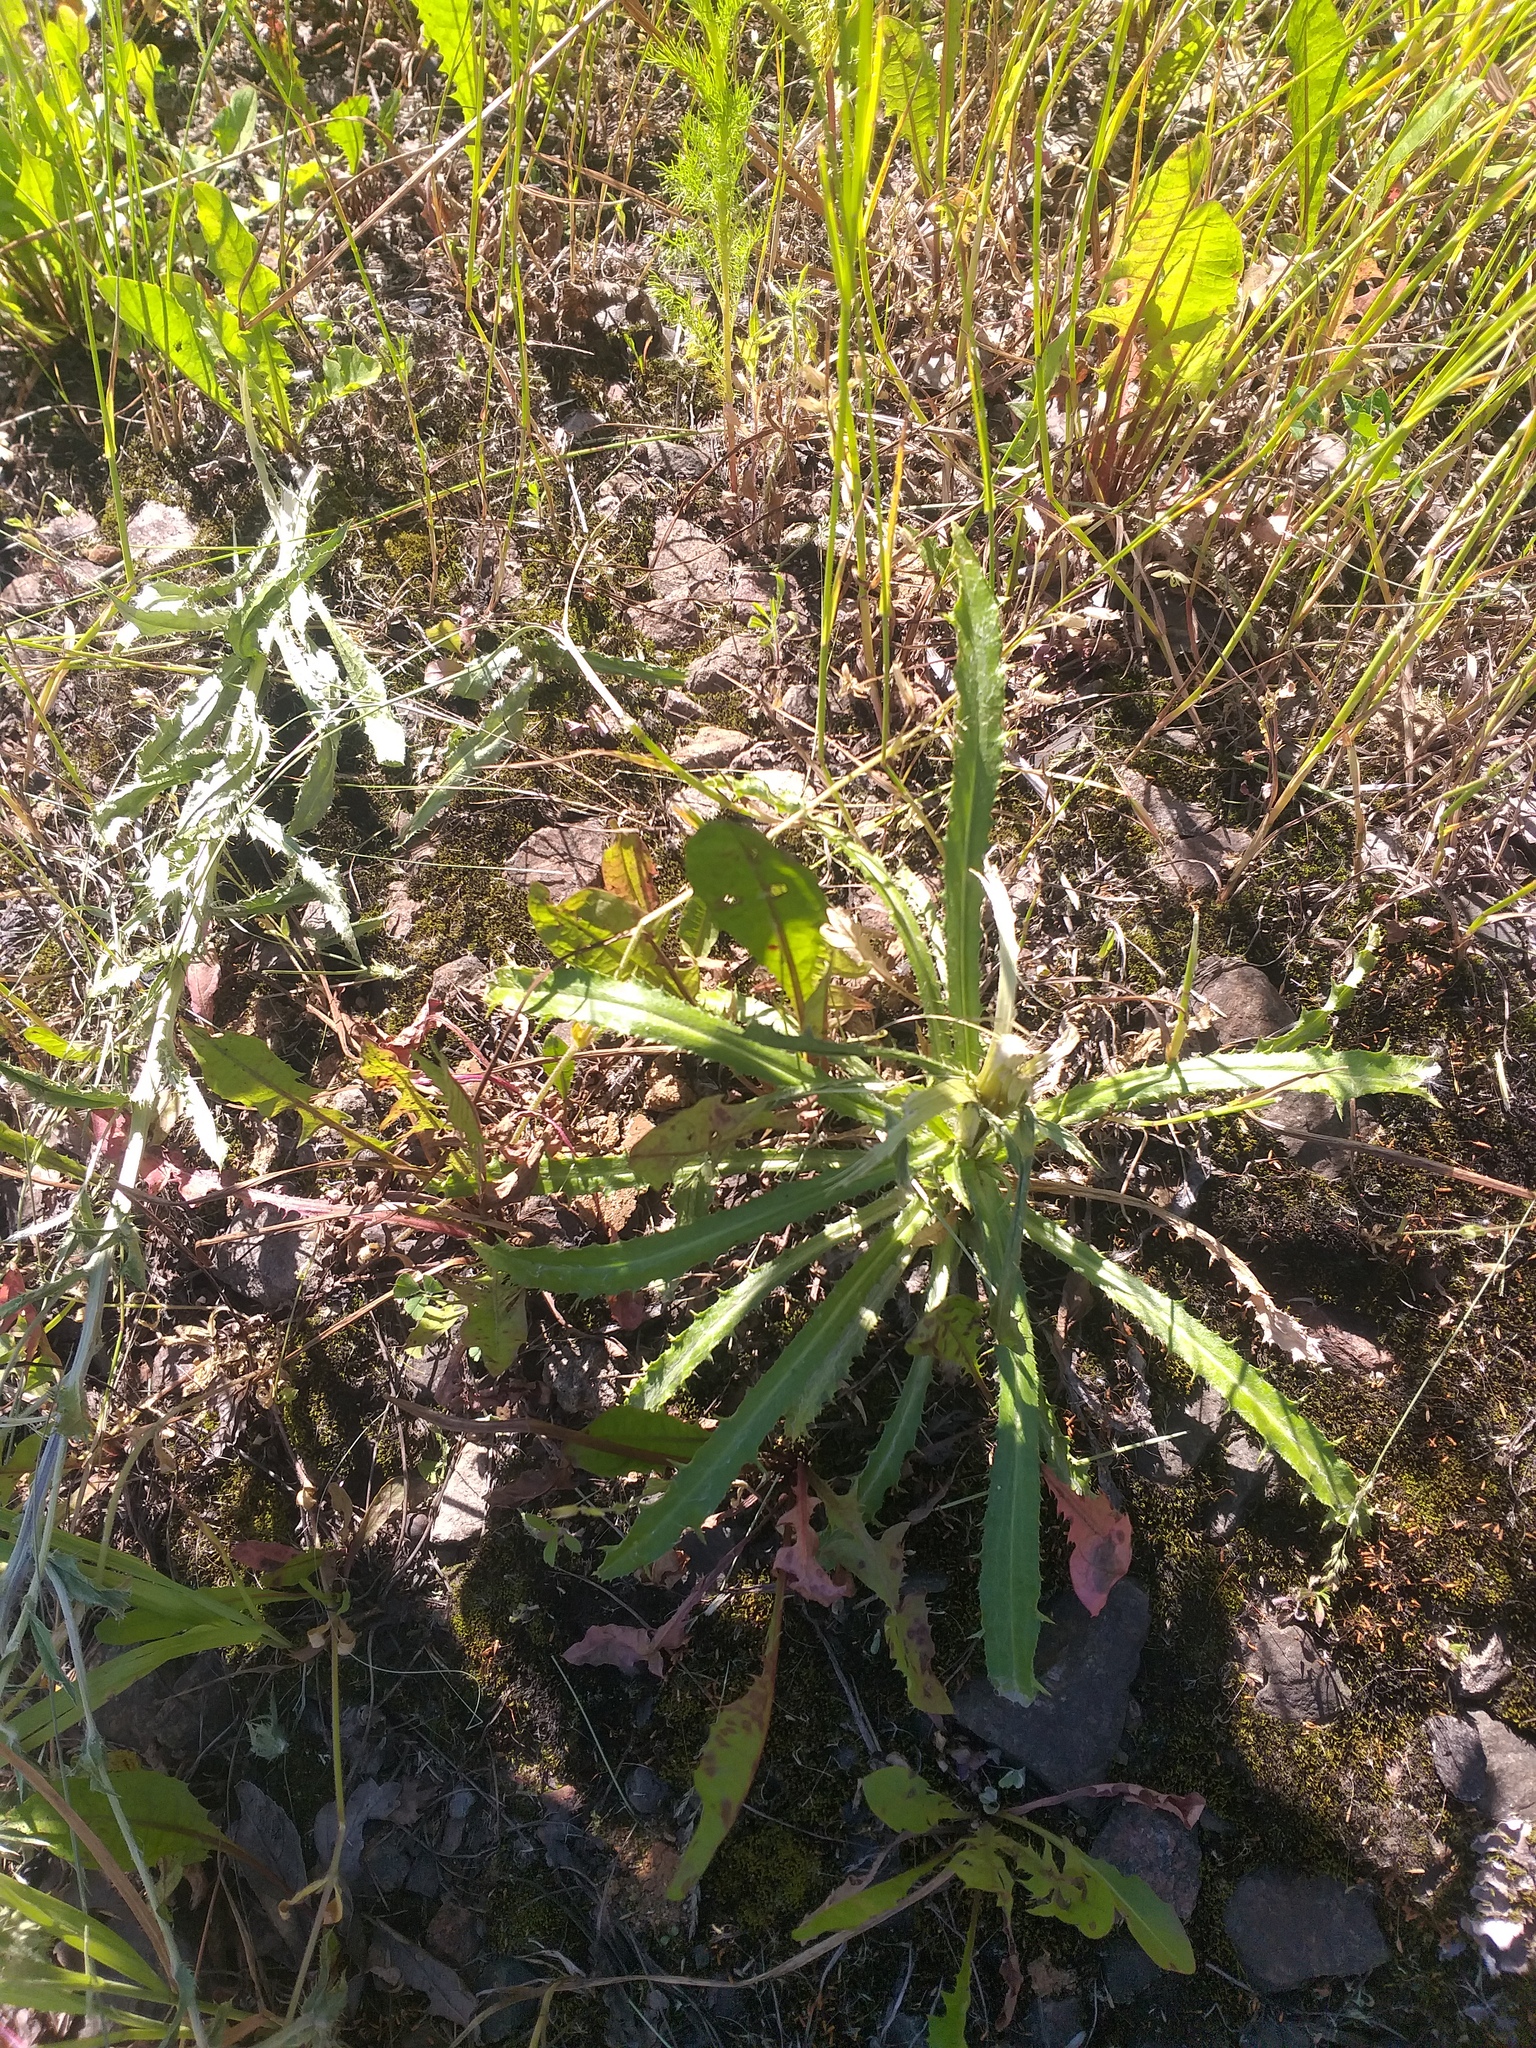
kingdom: Plantae
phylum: Tracheophyta
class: Magnoliopsida
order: Asterales
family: Asteraceae
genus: Carlina
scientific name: Carlina biebersteinii
